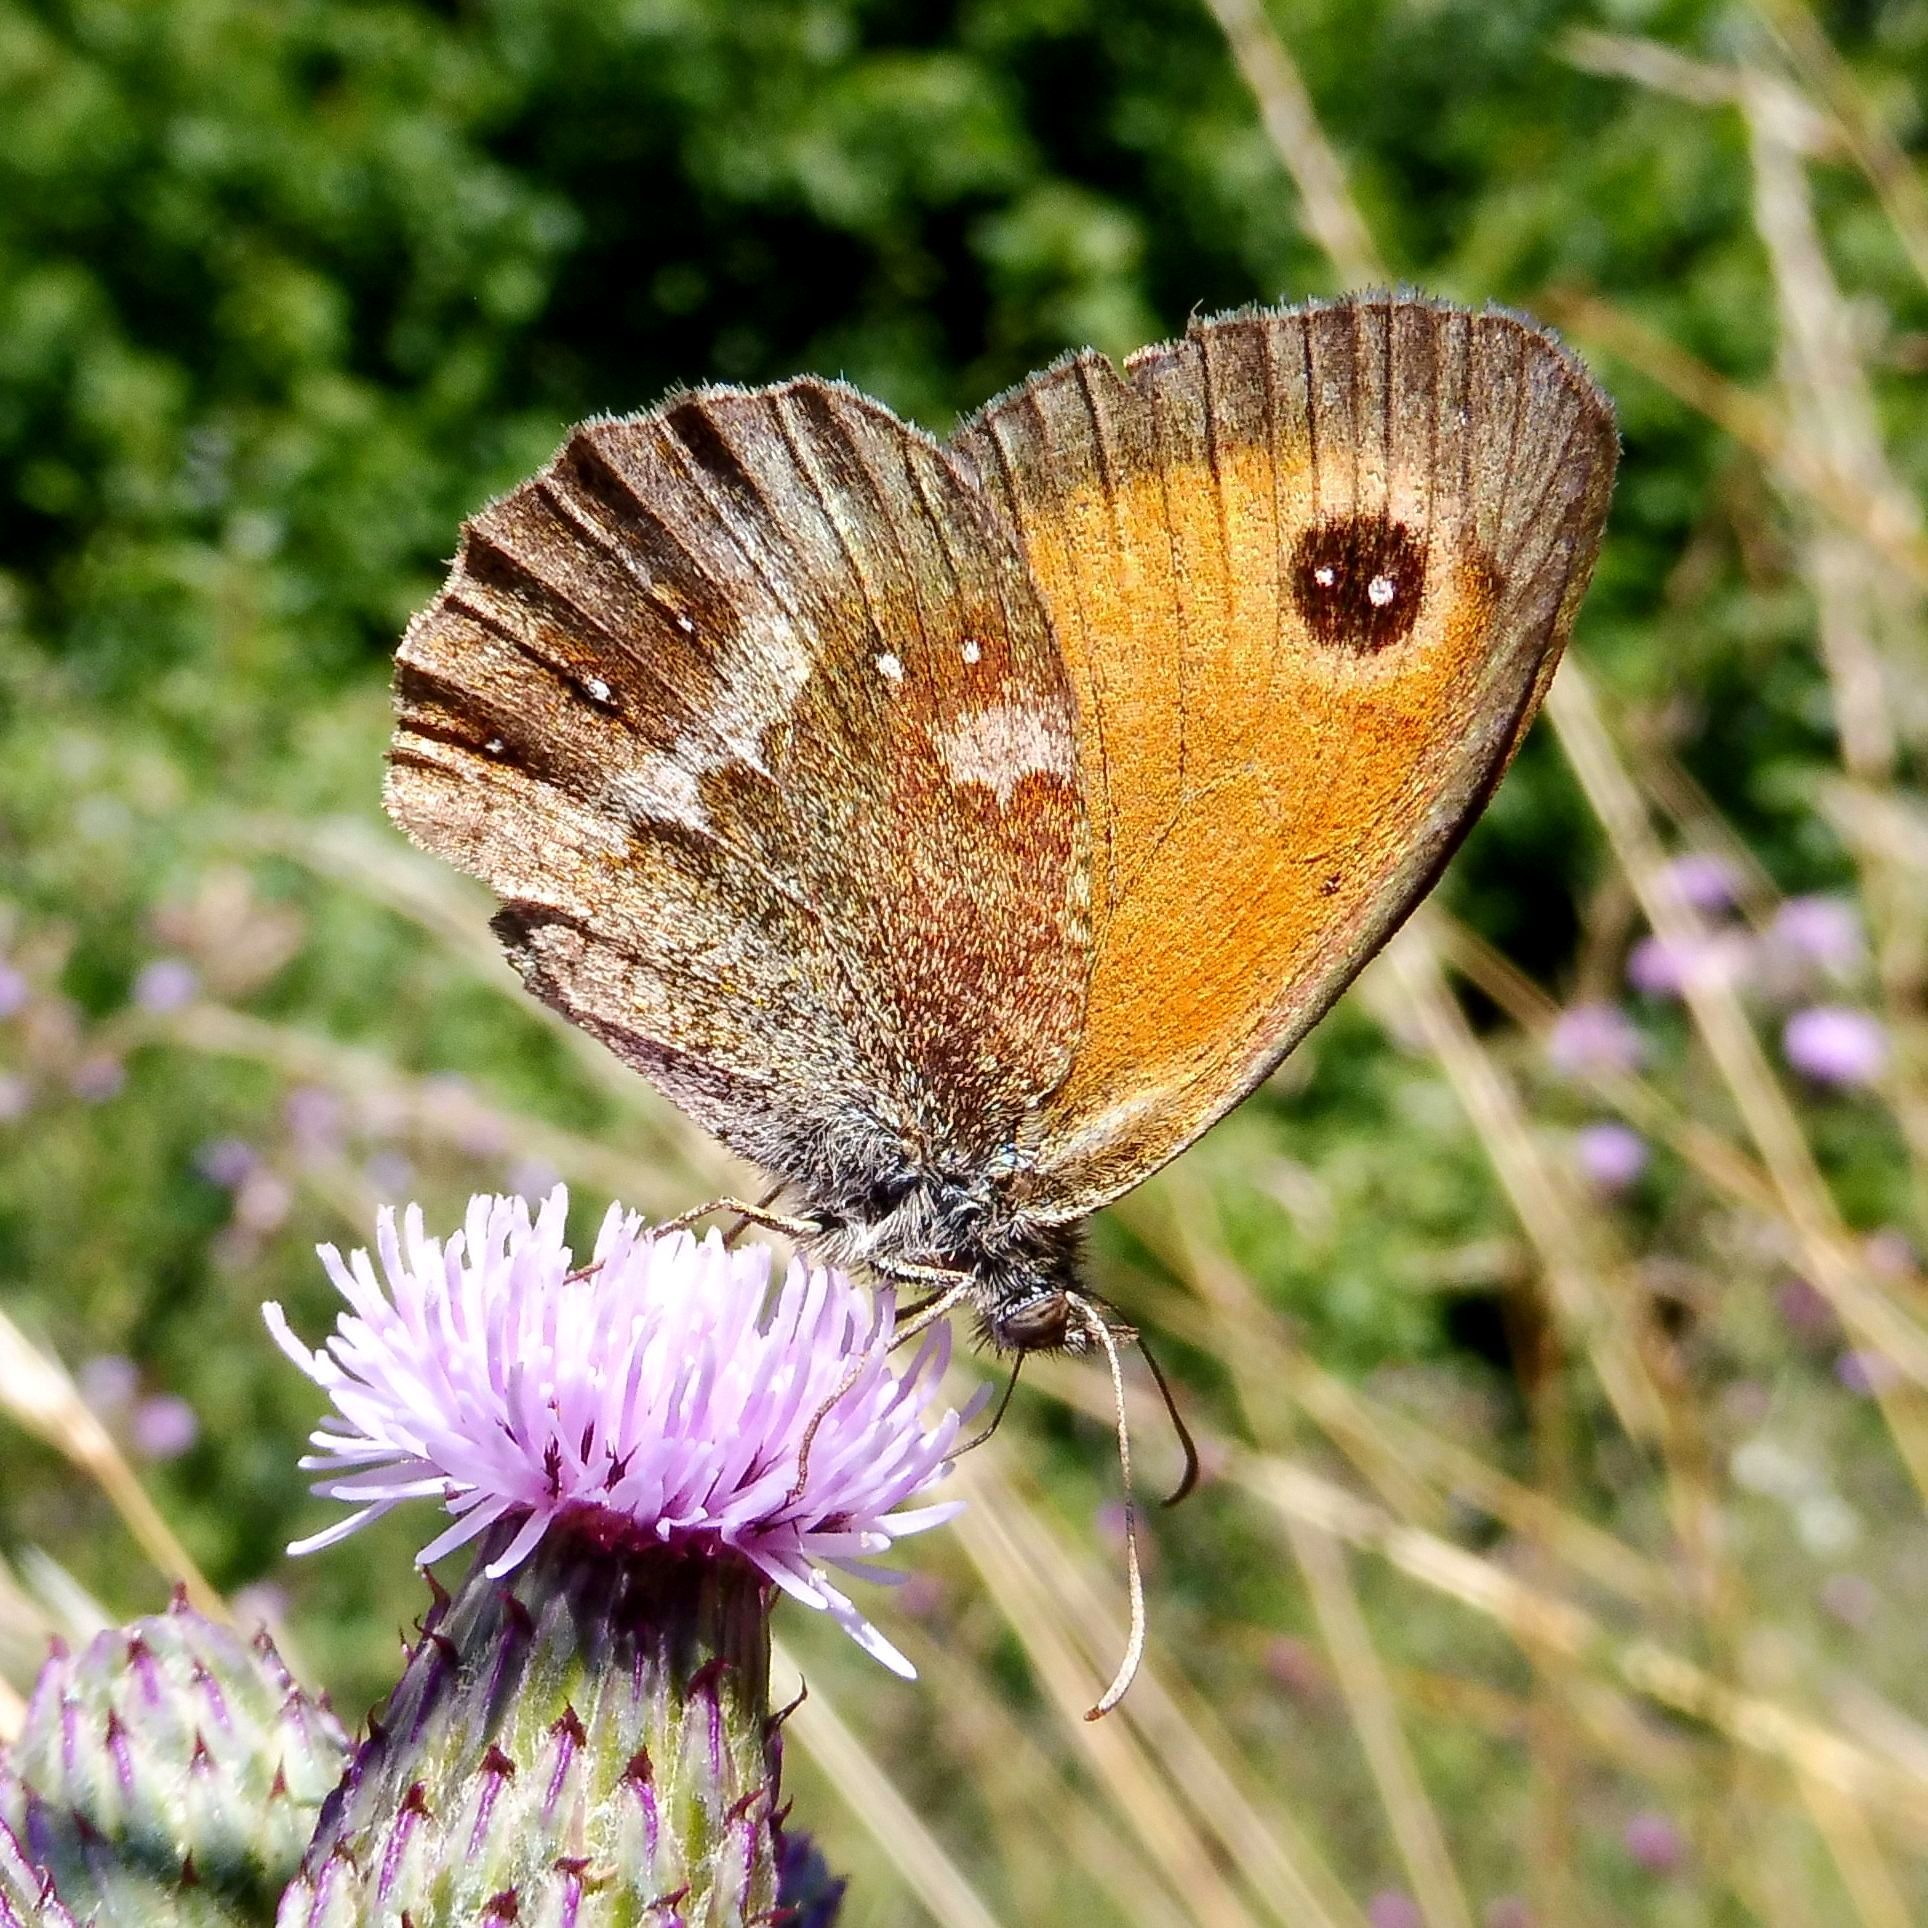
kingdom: Animalia
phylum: Arthropoda
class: Insecta
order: Lepidoptera
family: Nymphalidae
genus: Pyronia
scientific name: Pyronia tithonus
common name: Gatekeeper
